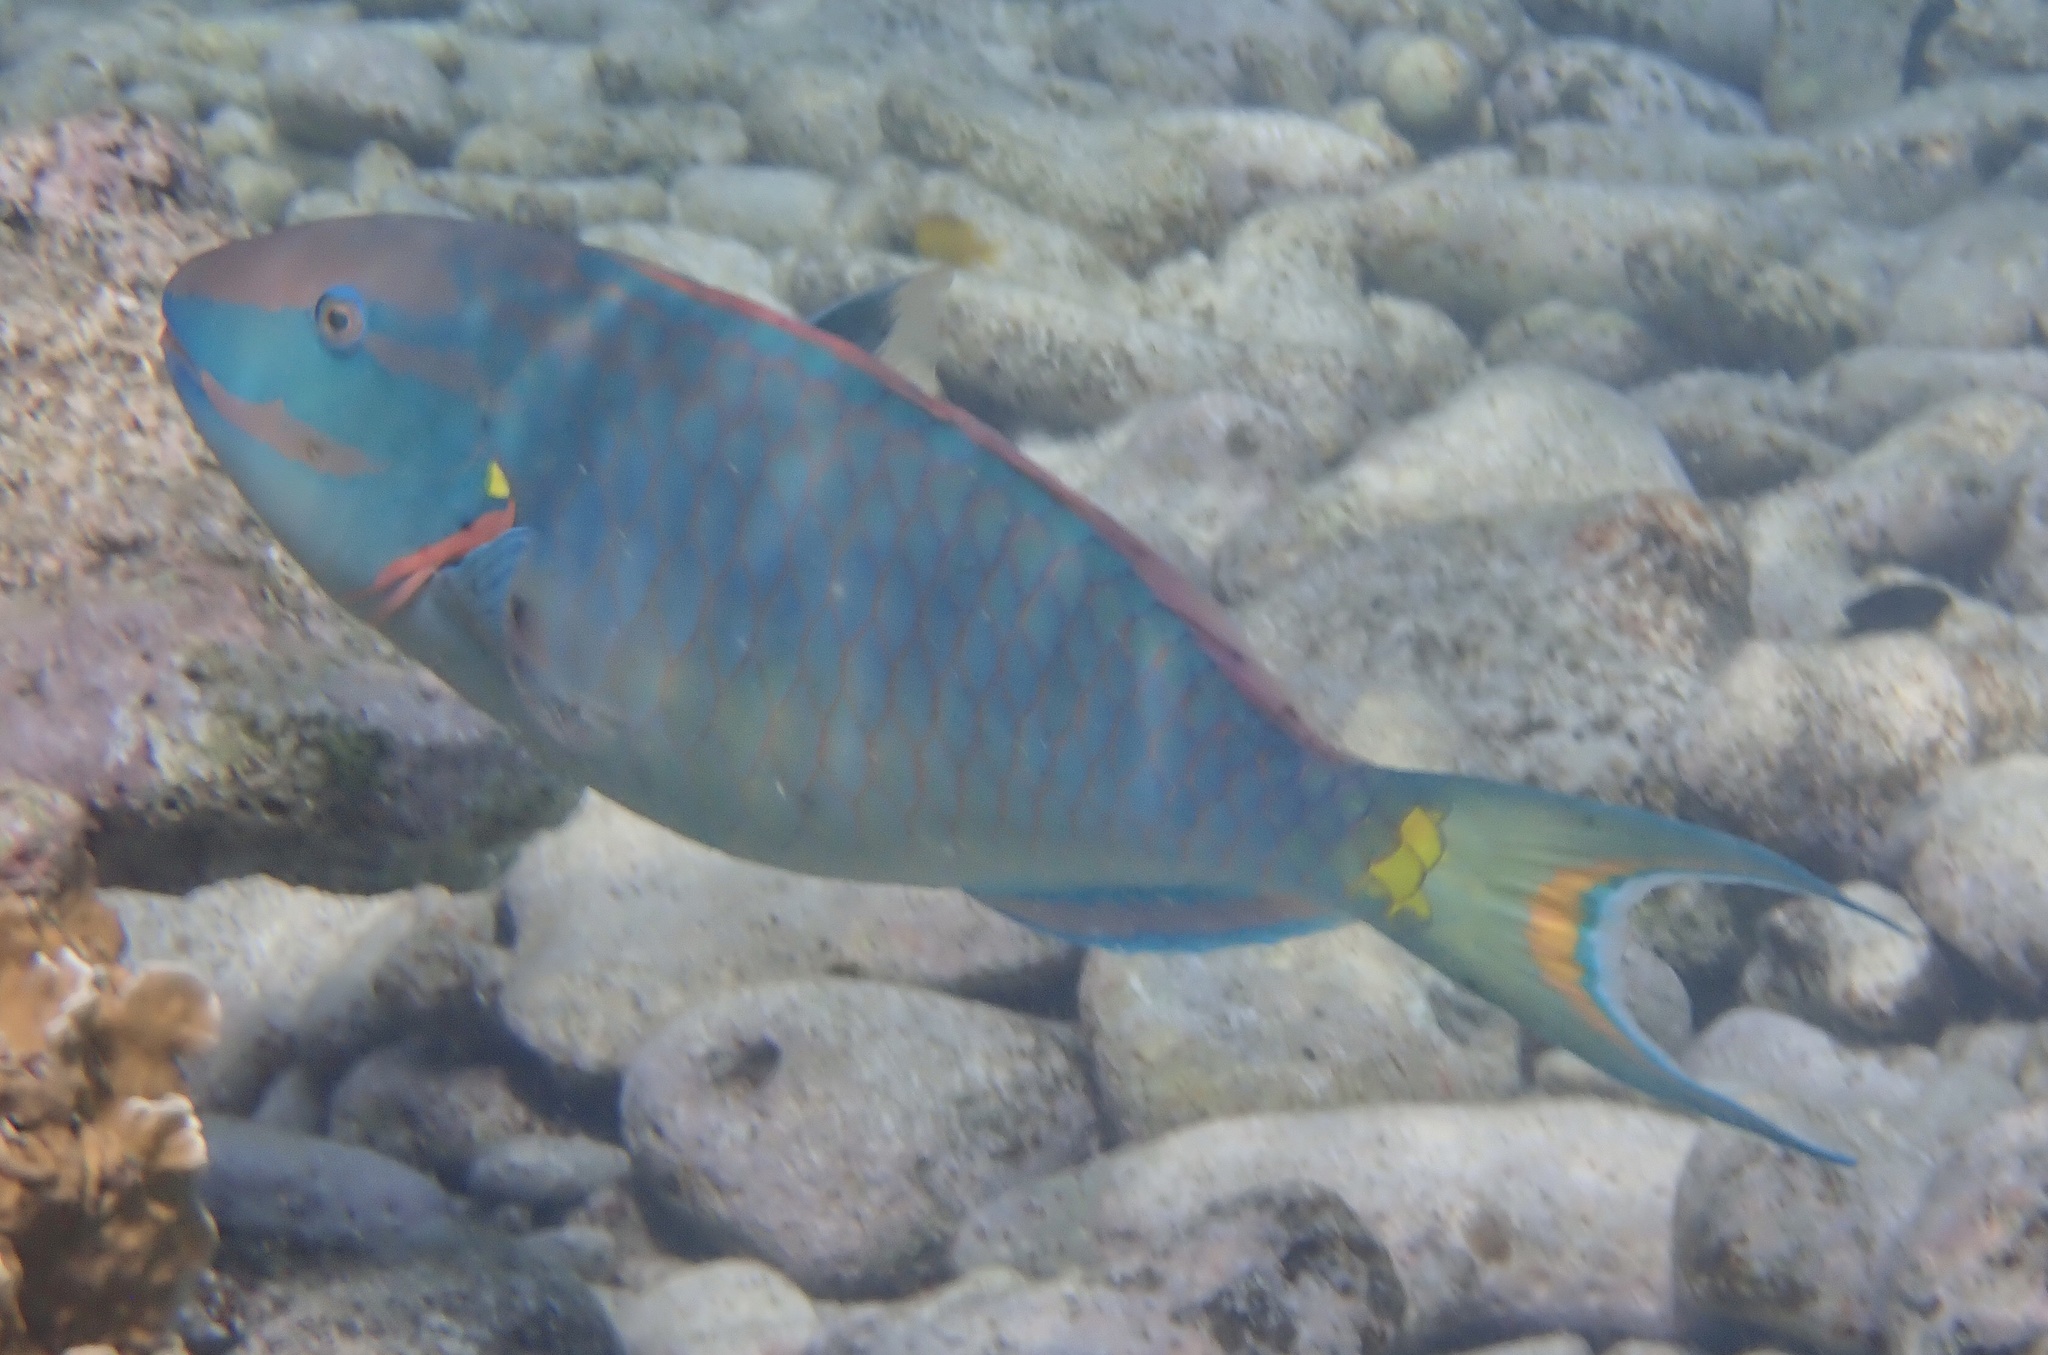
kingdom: Animalia
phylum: Chordata
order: Perciformes
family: Scaridae
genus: Sparisoma
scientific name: Sparisoma viride
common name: Stoplight parrotfish
